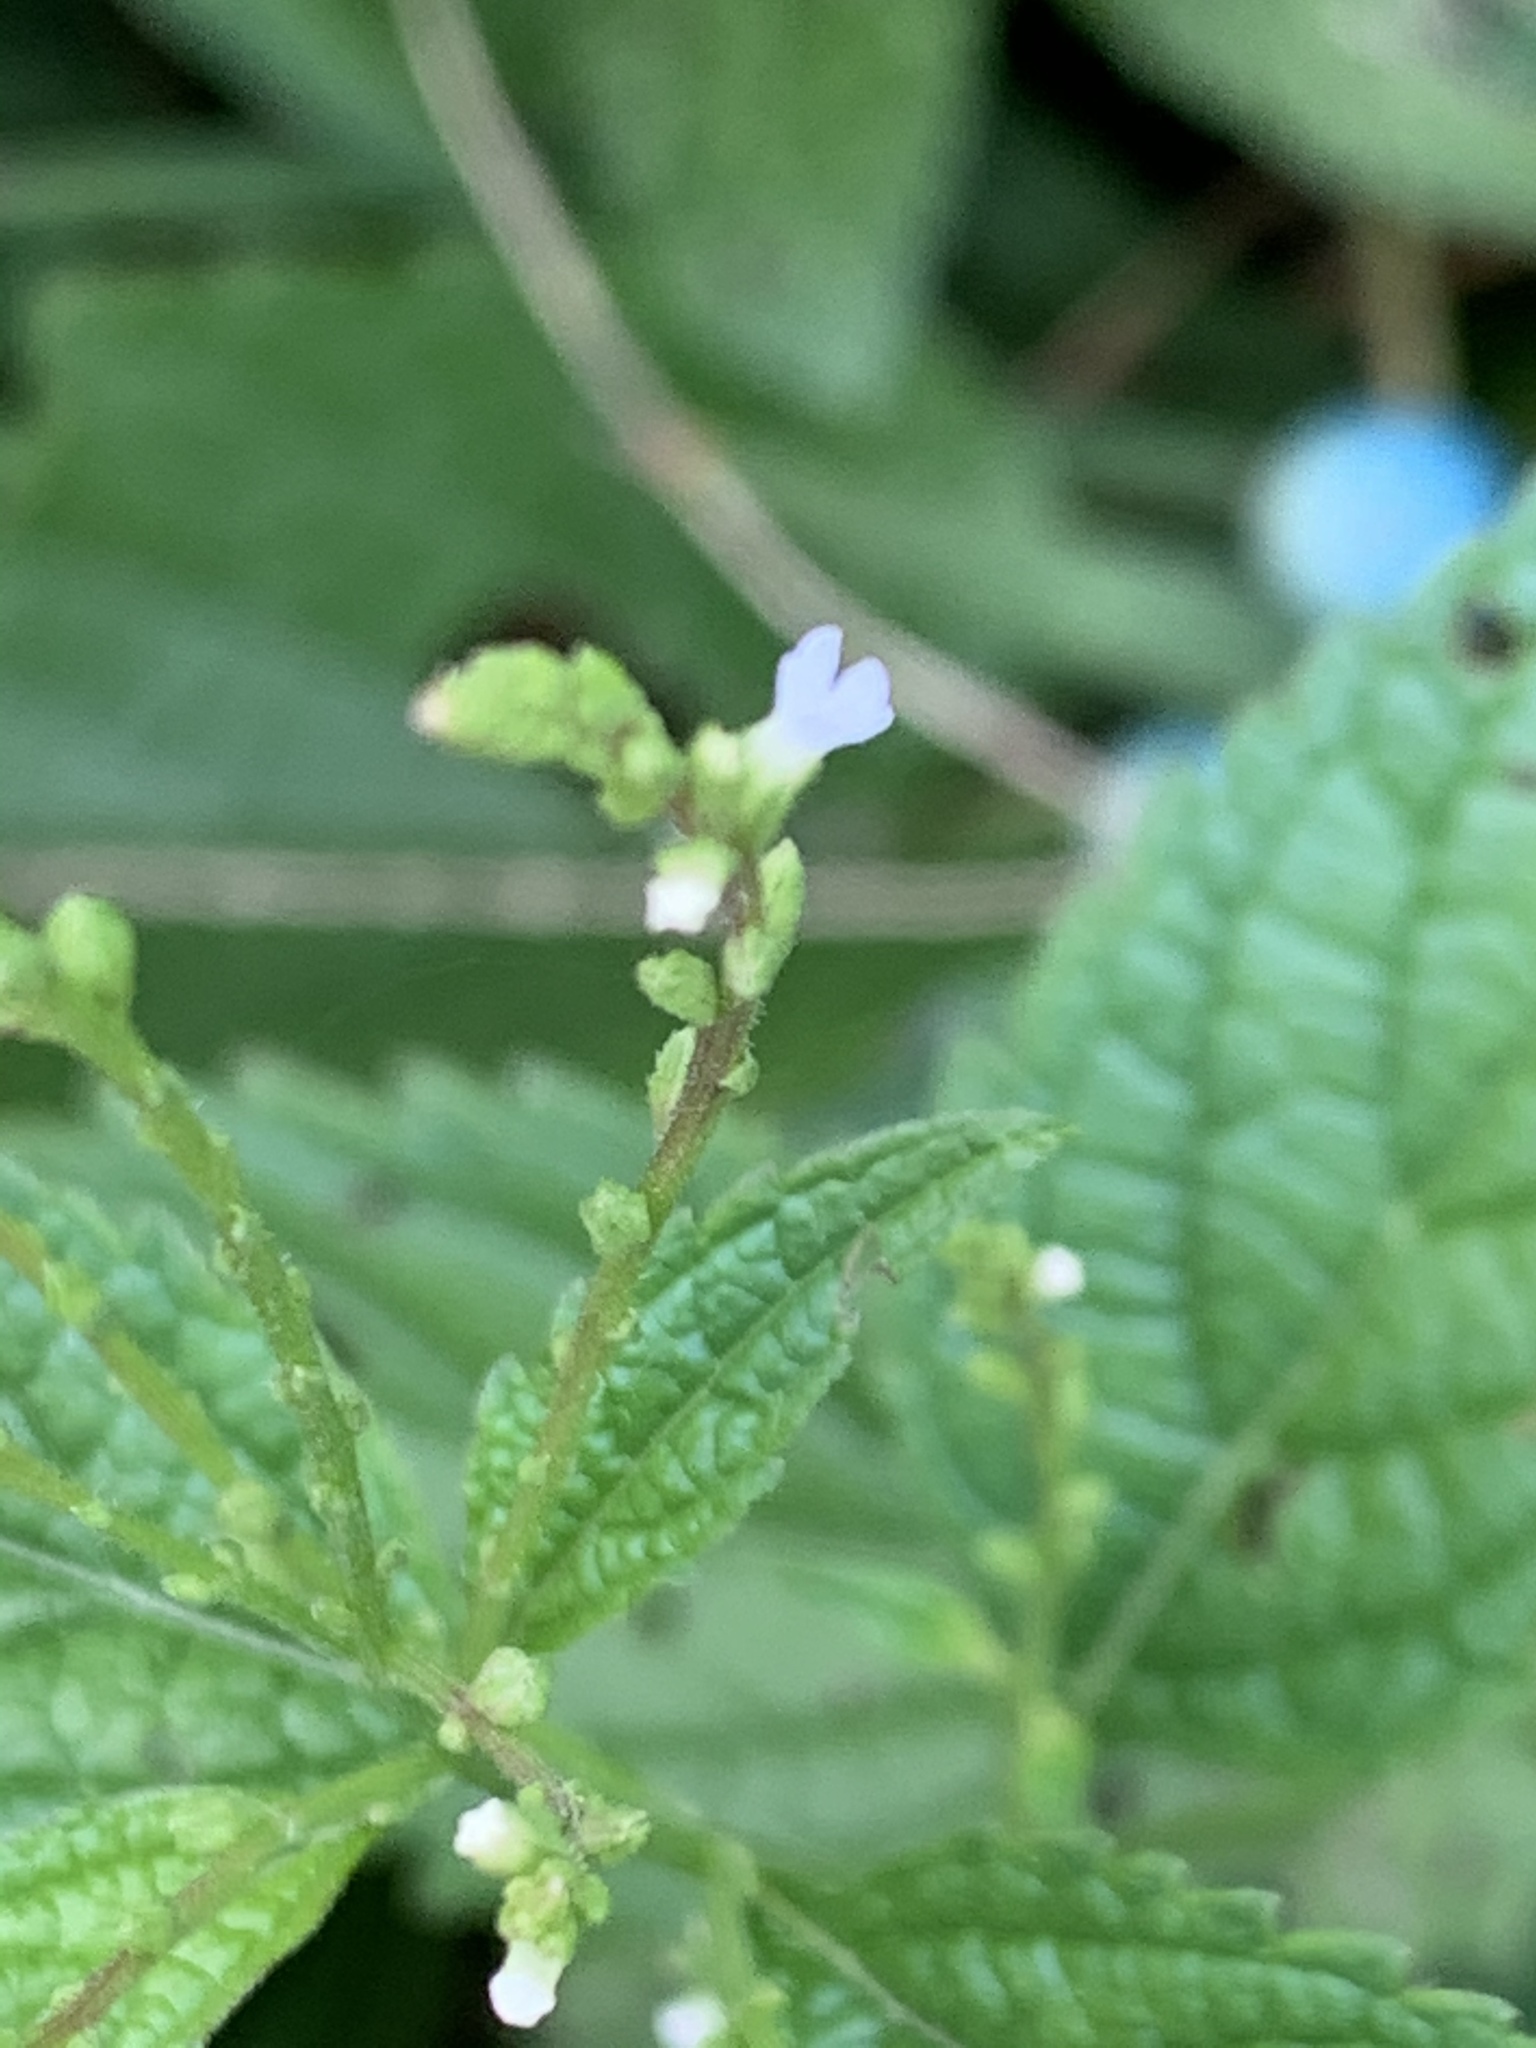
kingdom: Plantae
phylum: Tracheophyta
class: Magnoliopsida
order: Lamiales
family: Verbenaceae
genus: Verbena
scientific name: Verbena urticifolia
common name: Nettle-leaved vervain
